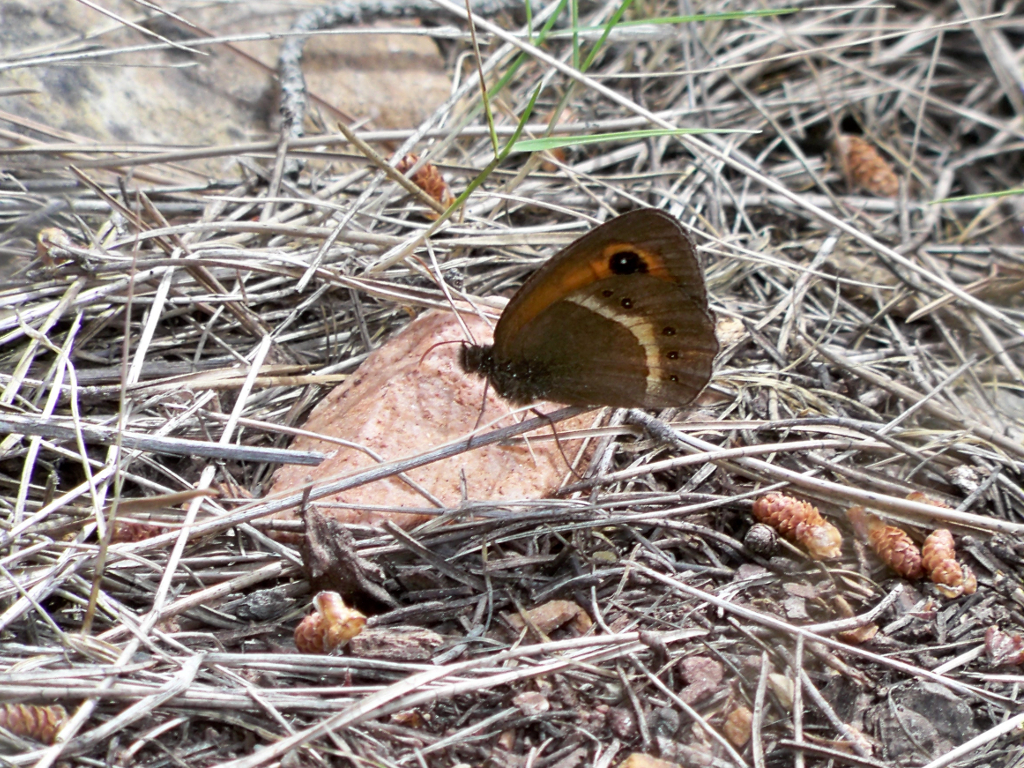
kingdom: Animalia
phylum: Arthropoda
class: Insecta
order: Lepidoptera
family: Nymphalidae
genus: Pyronia
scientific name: Pyronia bathseba
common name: Spanish gatekeeper
